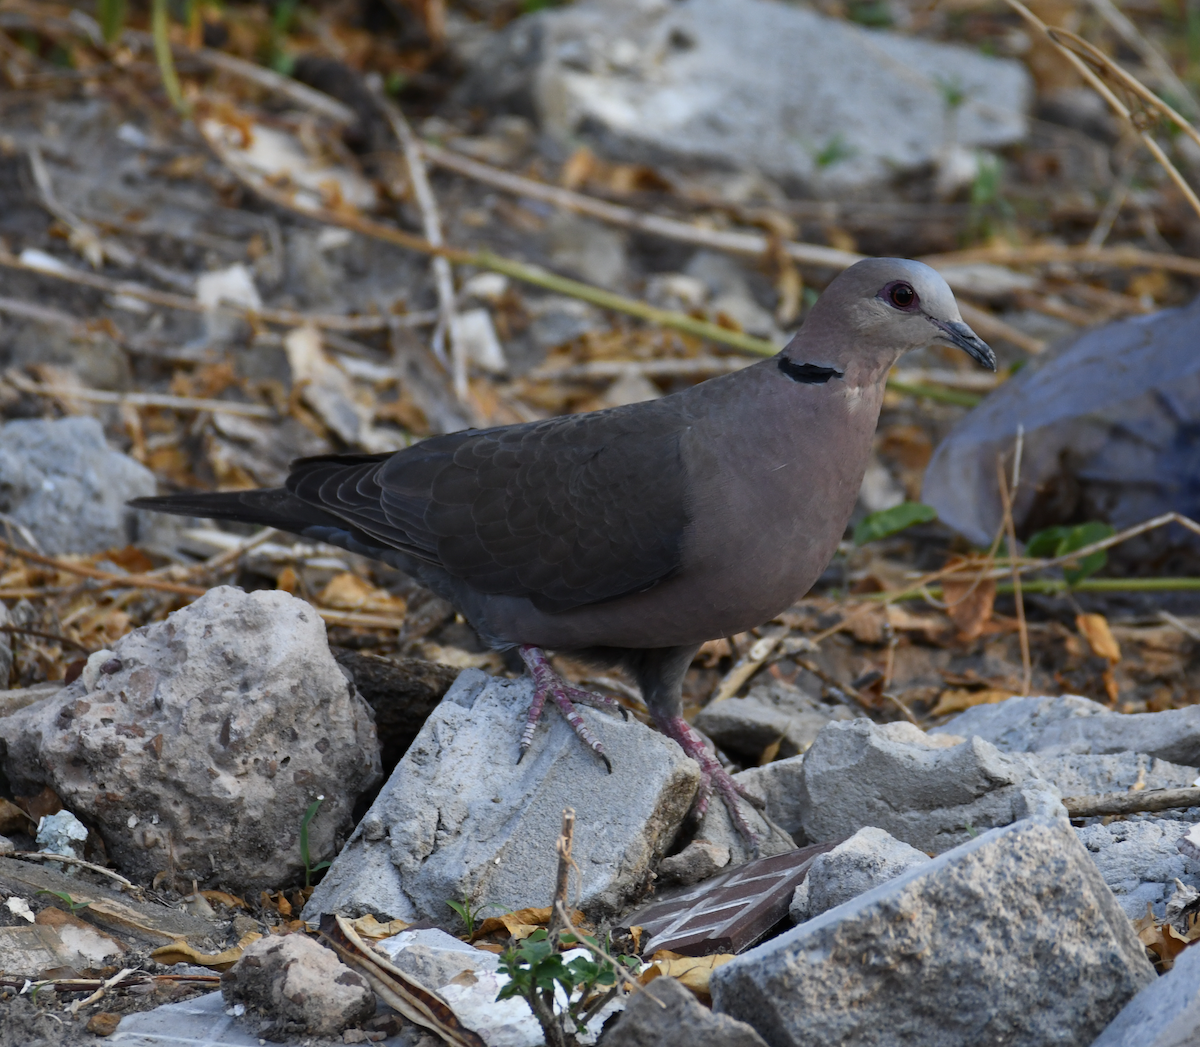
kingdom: Animalia
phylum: Chordata
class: Aves
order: Columbiformes
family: Columbidae
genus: Streptopelia
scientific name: Streptopelia semitorquata
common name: Red-eyed dove
